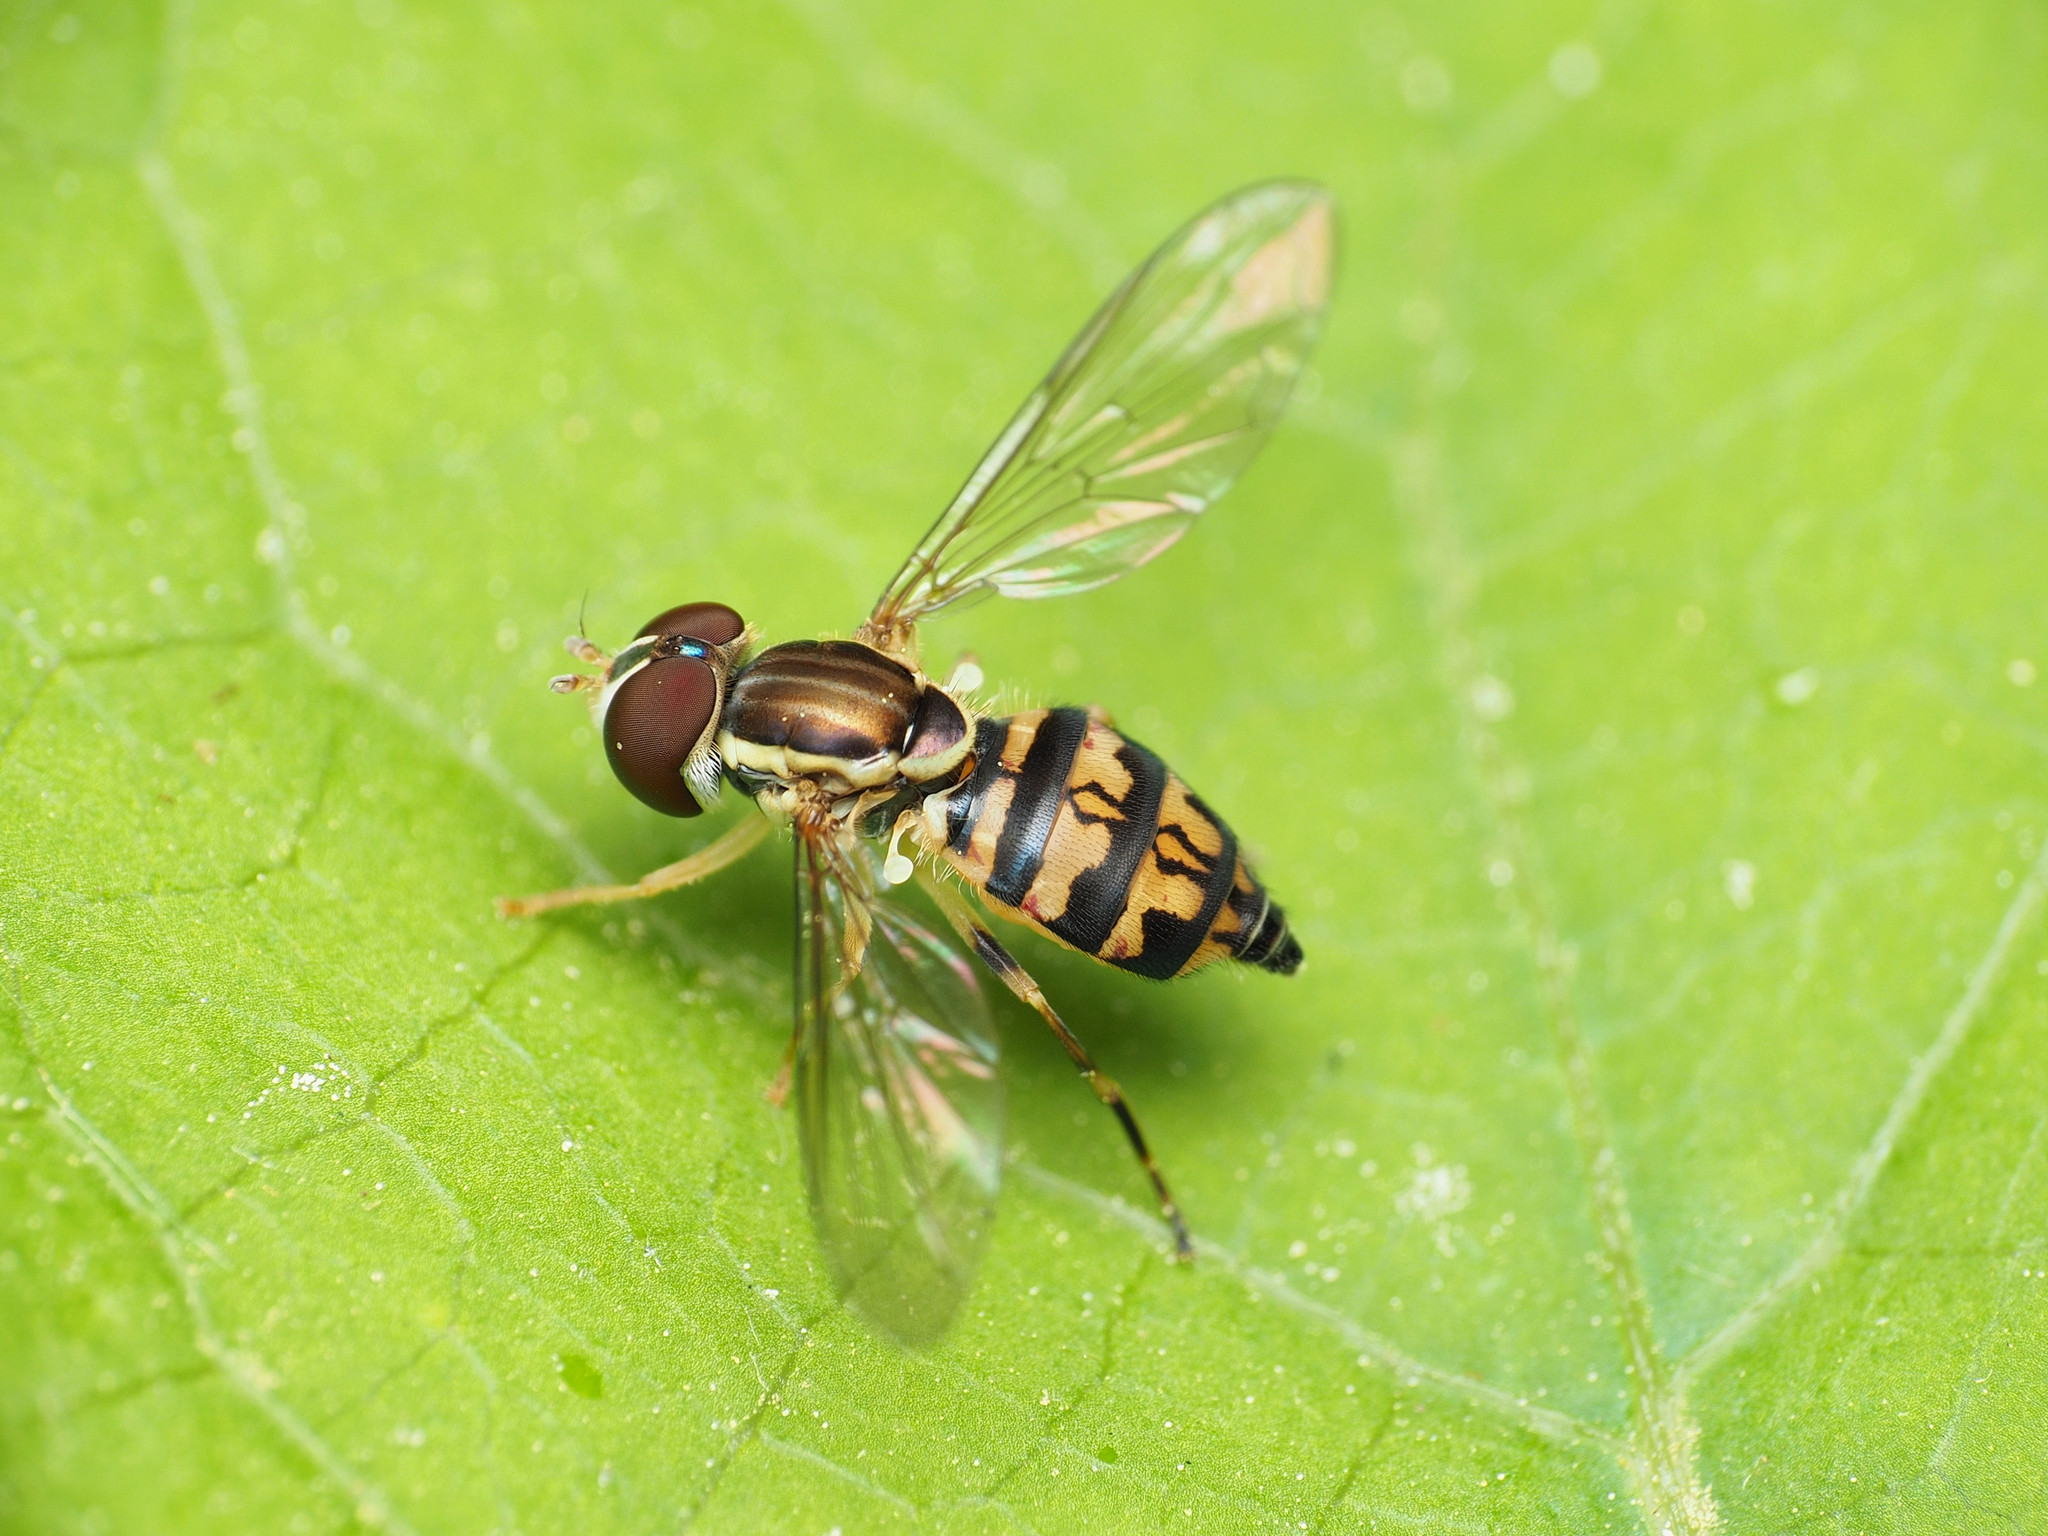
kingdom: Animalia
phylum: Arthropoda
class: Insecta
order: Diptera
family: Syrphidae
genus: Toxomerus
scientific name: Toxomerus geminatus
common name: Eastern calligrapher
